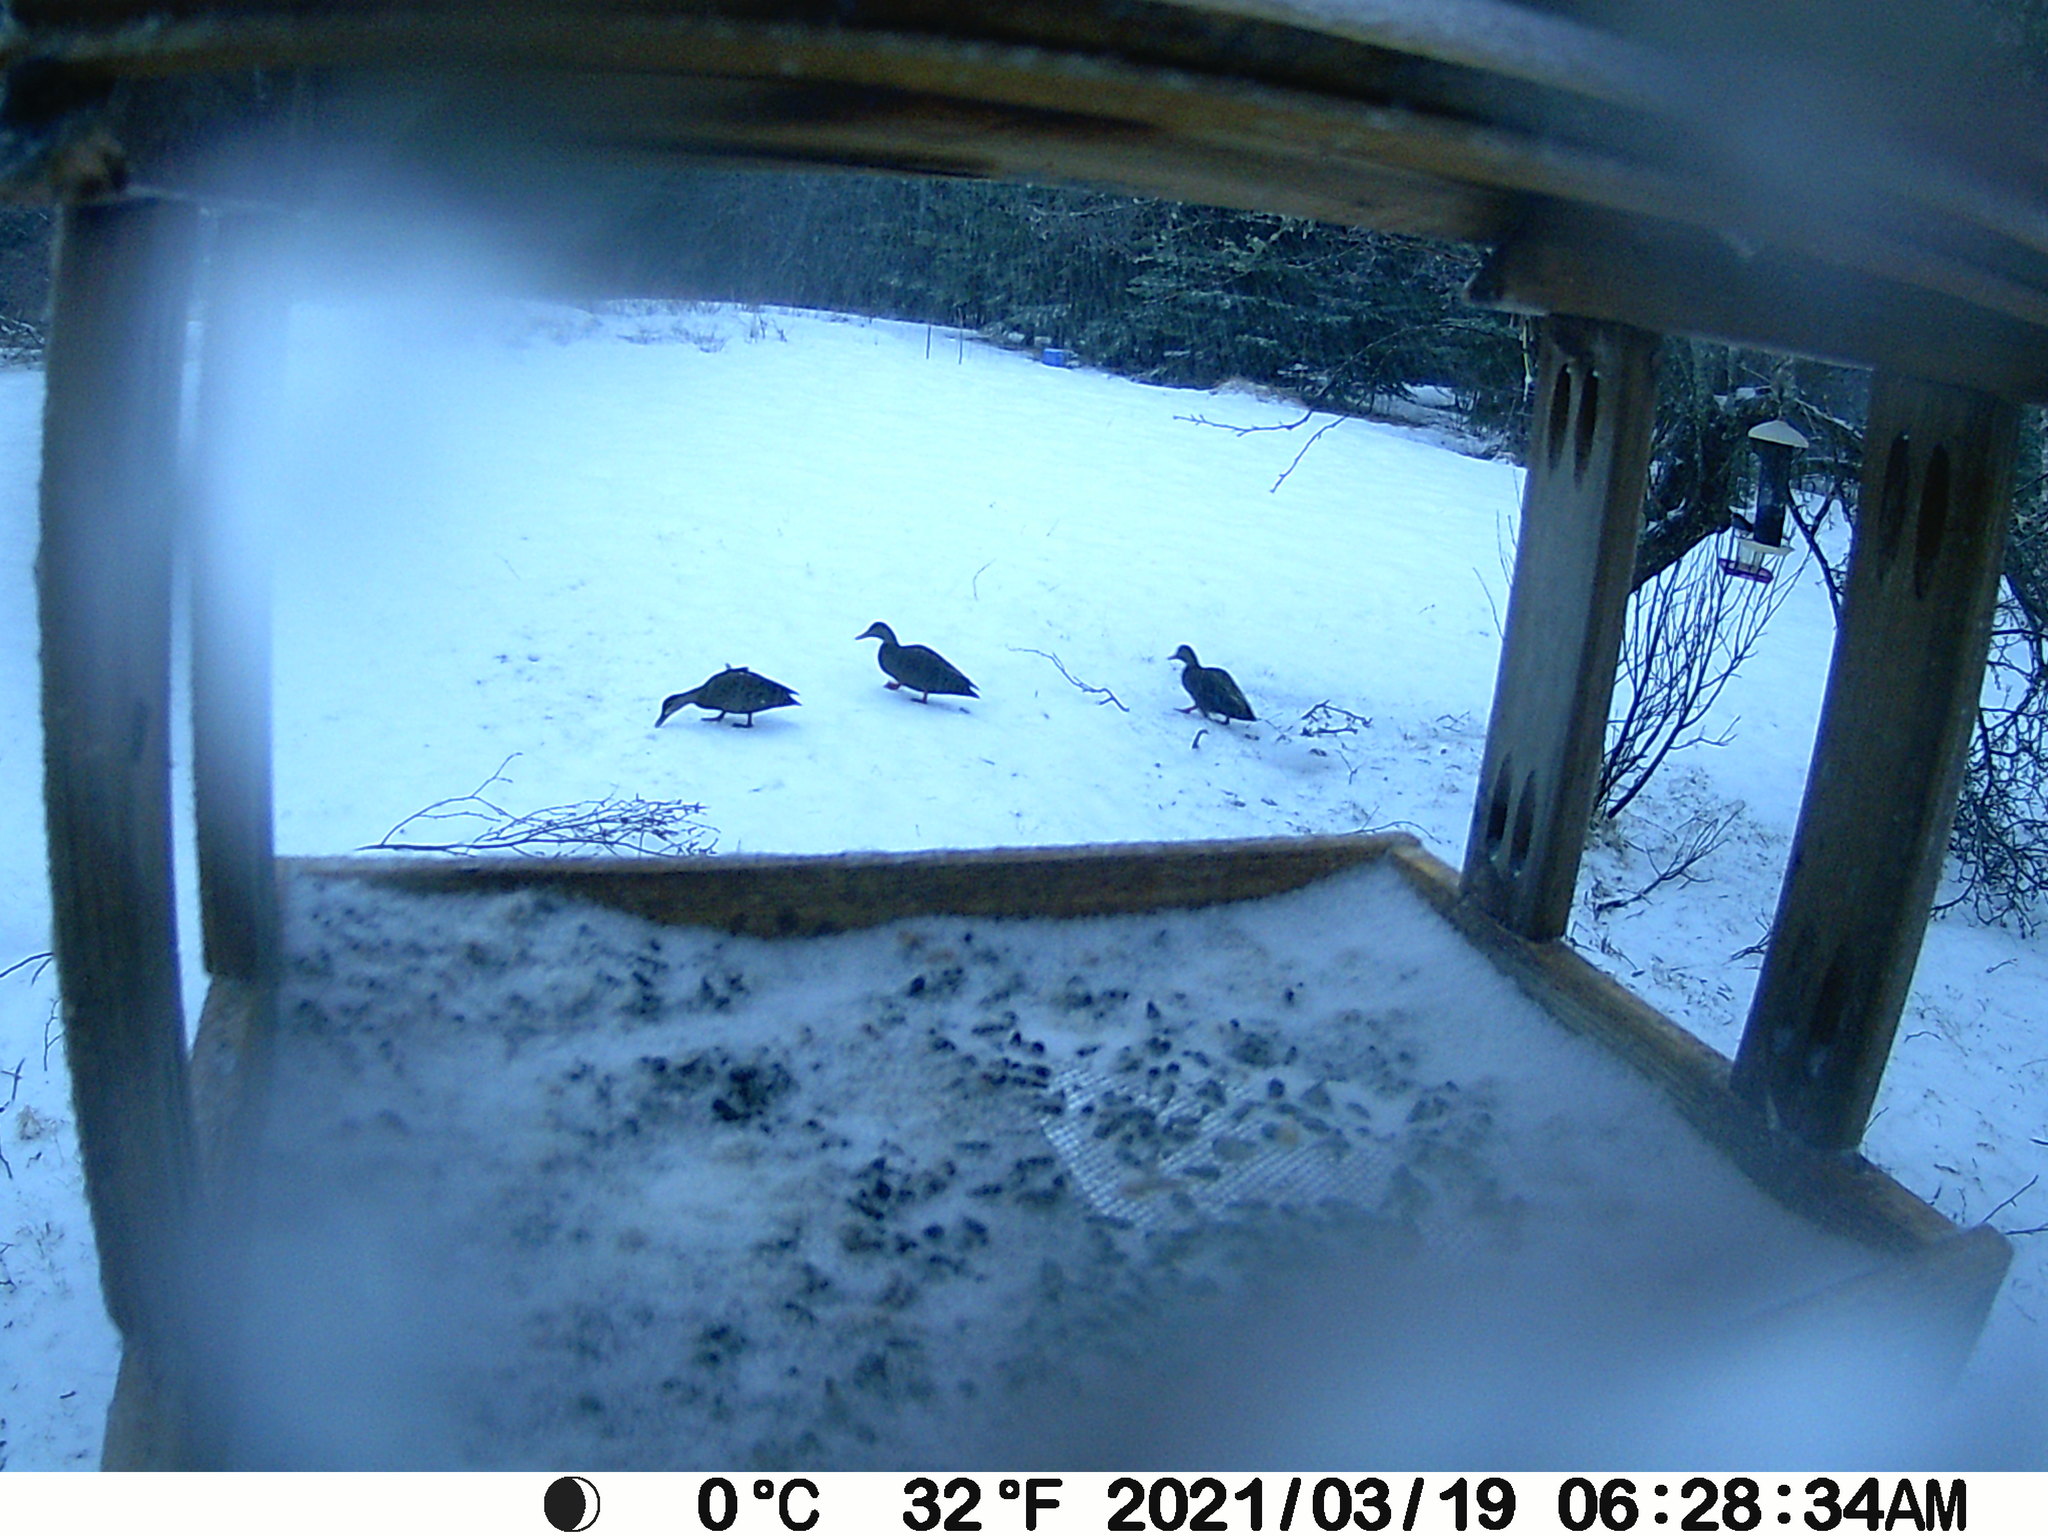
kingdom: Animalia
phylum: Chordata
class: Aves
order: Anseriformes
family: Anatidae
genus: Anas
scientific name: Anas rubripes
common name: American black duck
